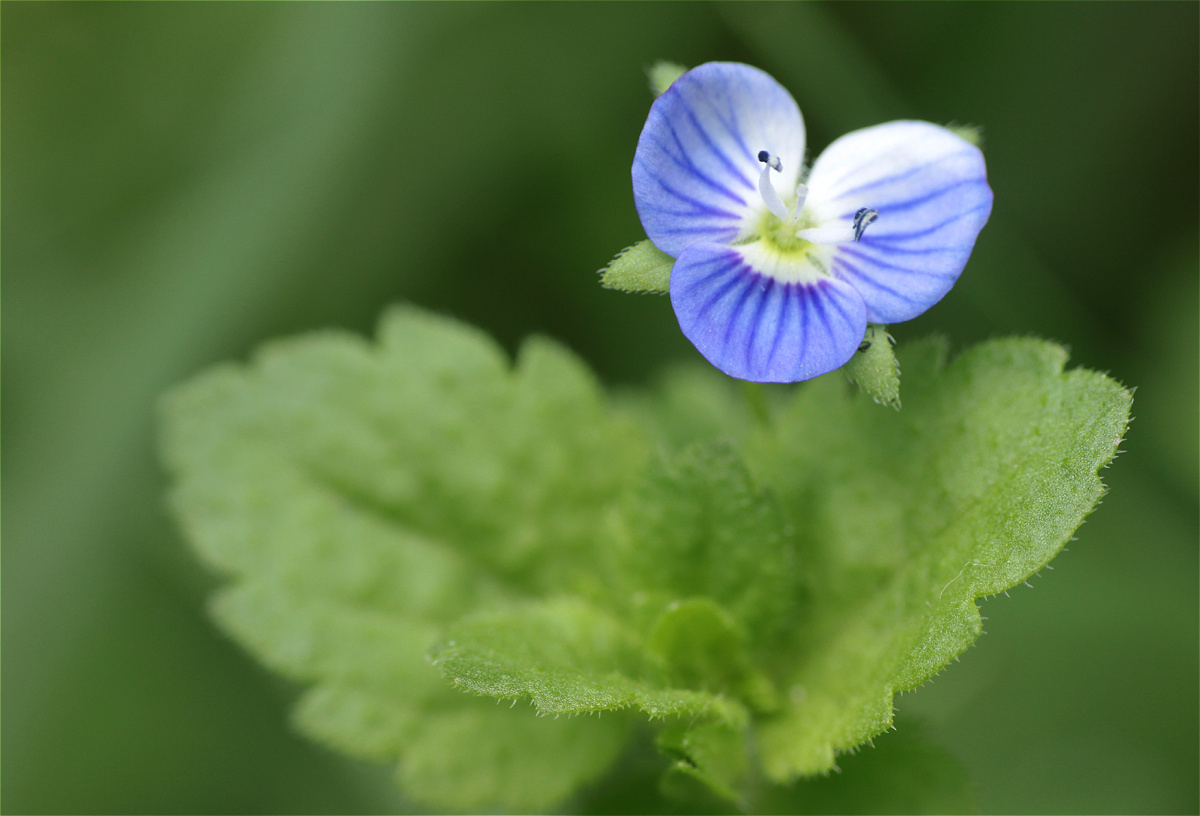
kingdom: Plantae
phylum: Tracheophyta
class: Magnoliopsida
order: Lamiales
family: Plantaginaceae
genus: Veronica
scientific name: Veronica persica
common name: Common field-speedwell
